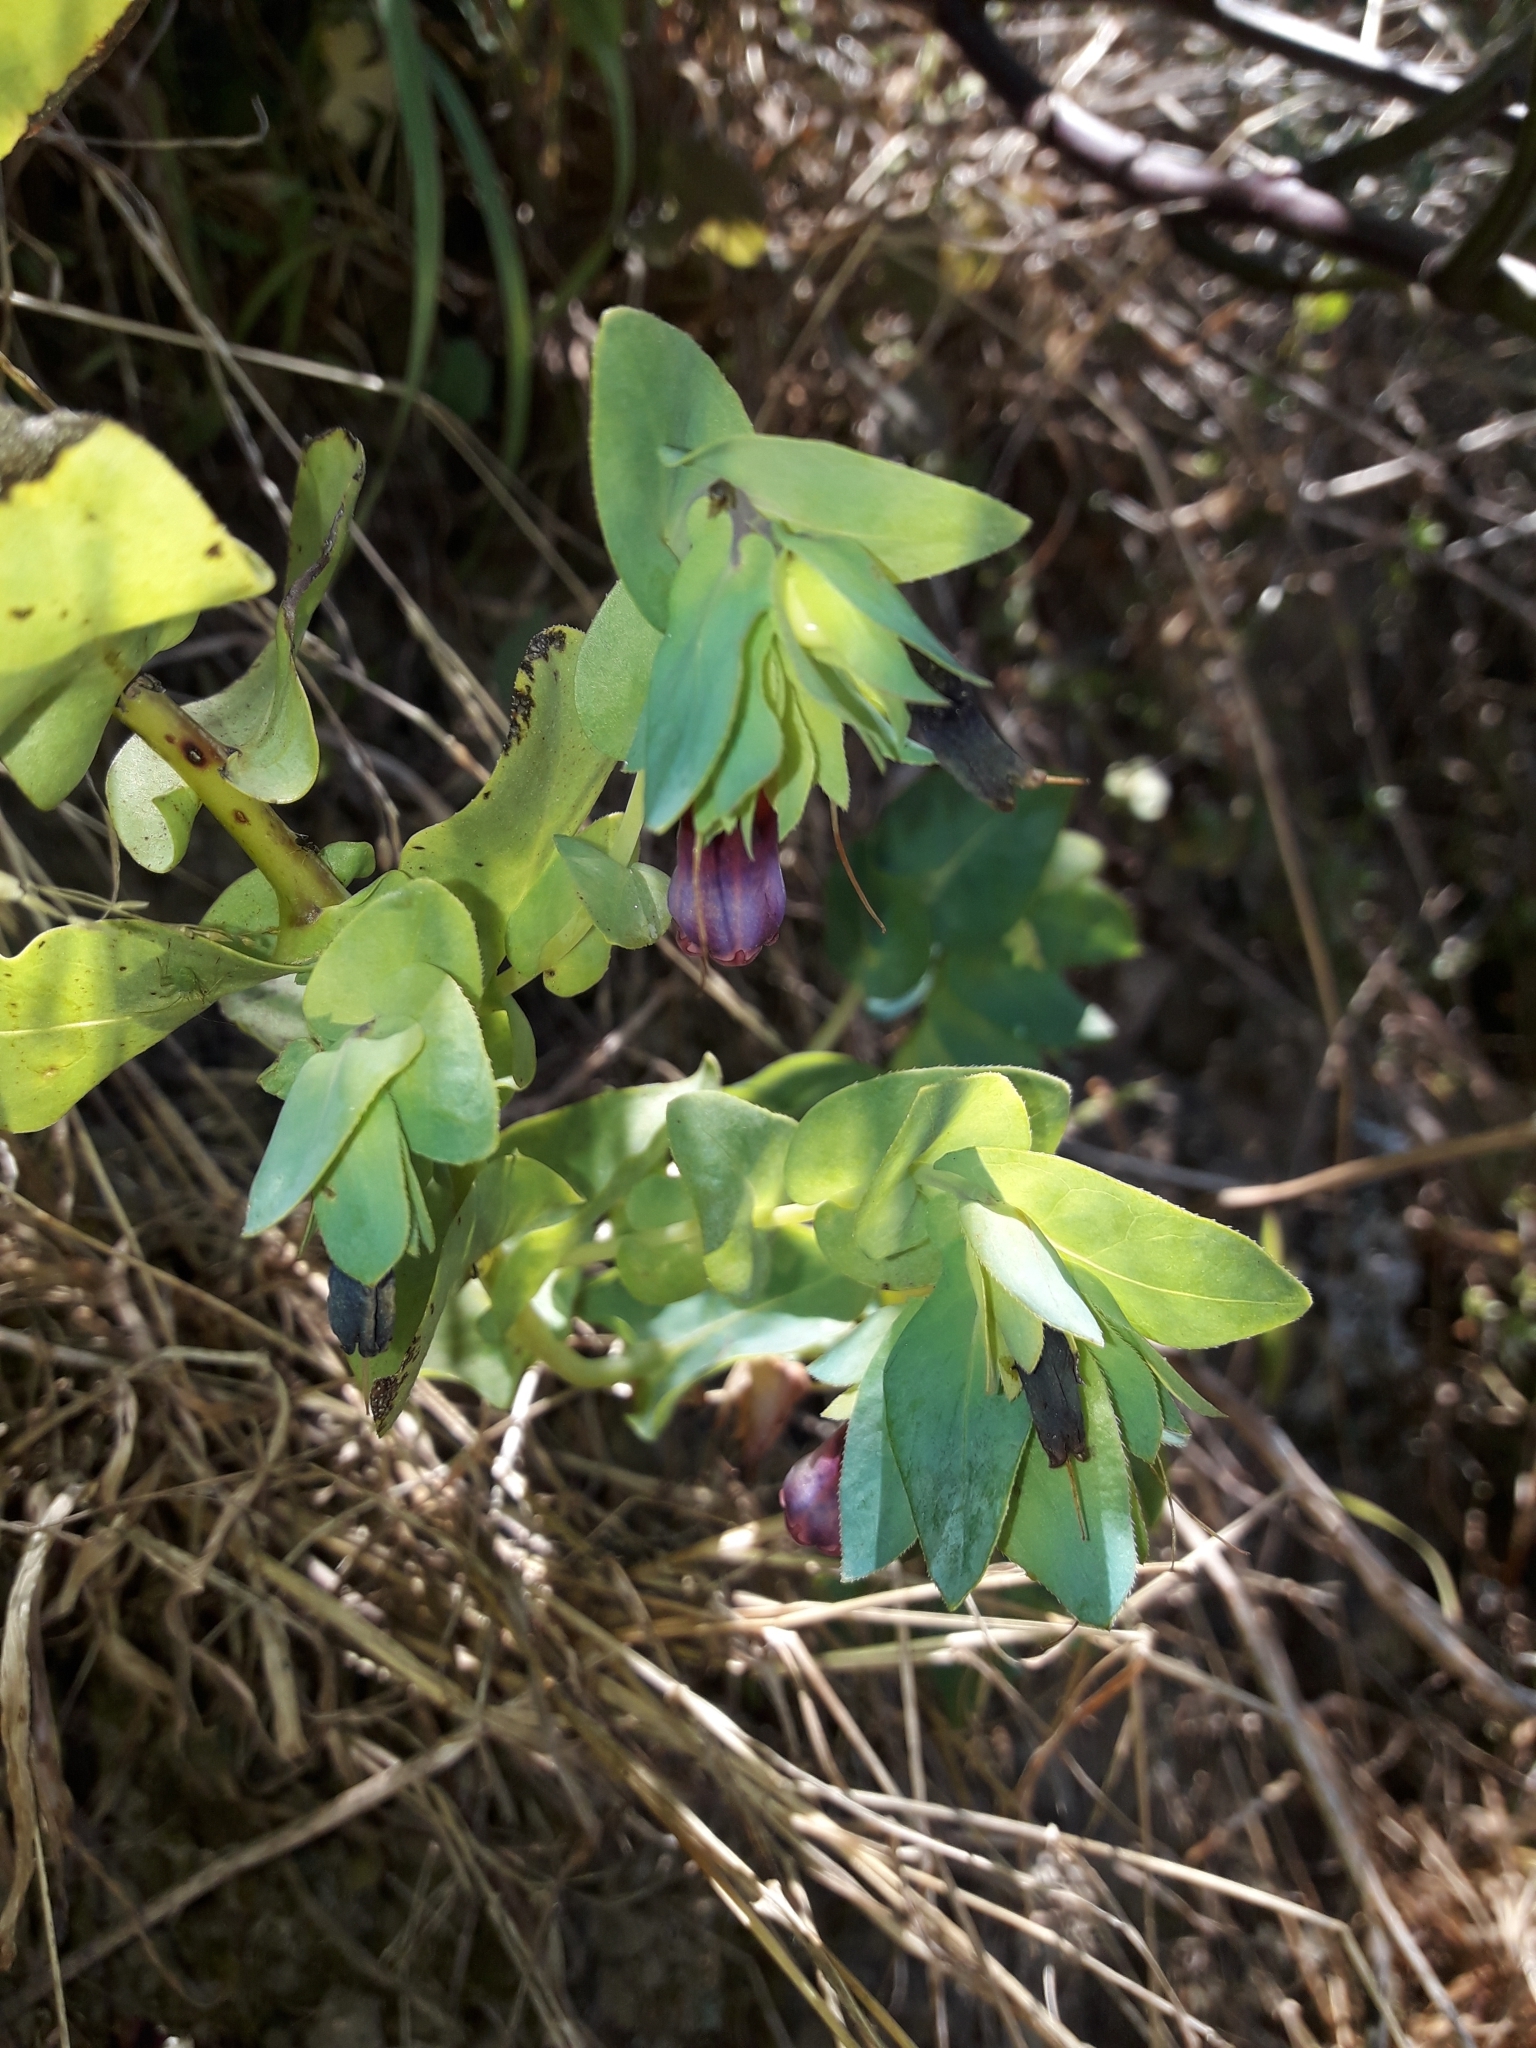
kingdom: Plantae
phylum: Tracheophyta
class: Magnoliopsida
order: Boraginales
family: Boraginaceae
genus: Cerinthe
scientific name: Cerinthe major
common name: Greater honeywort
